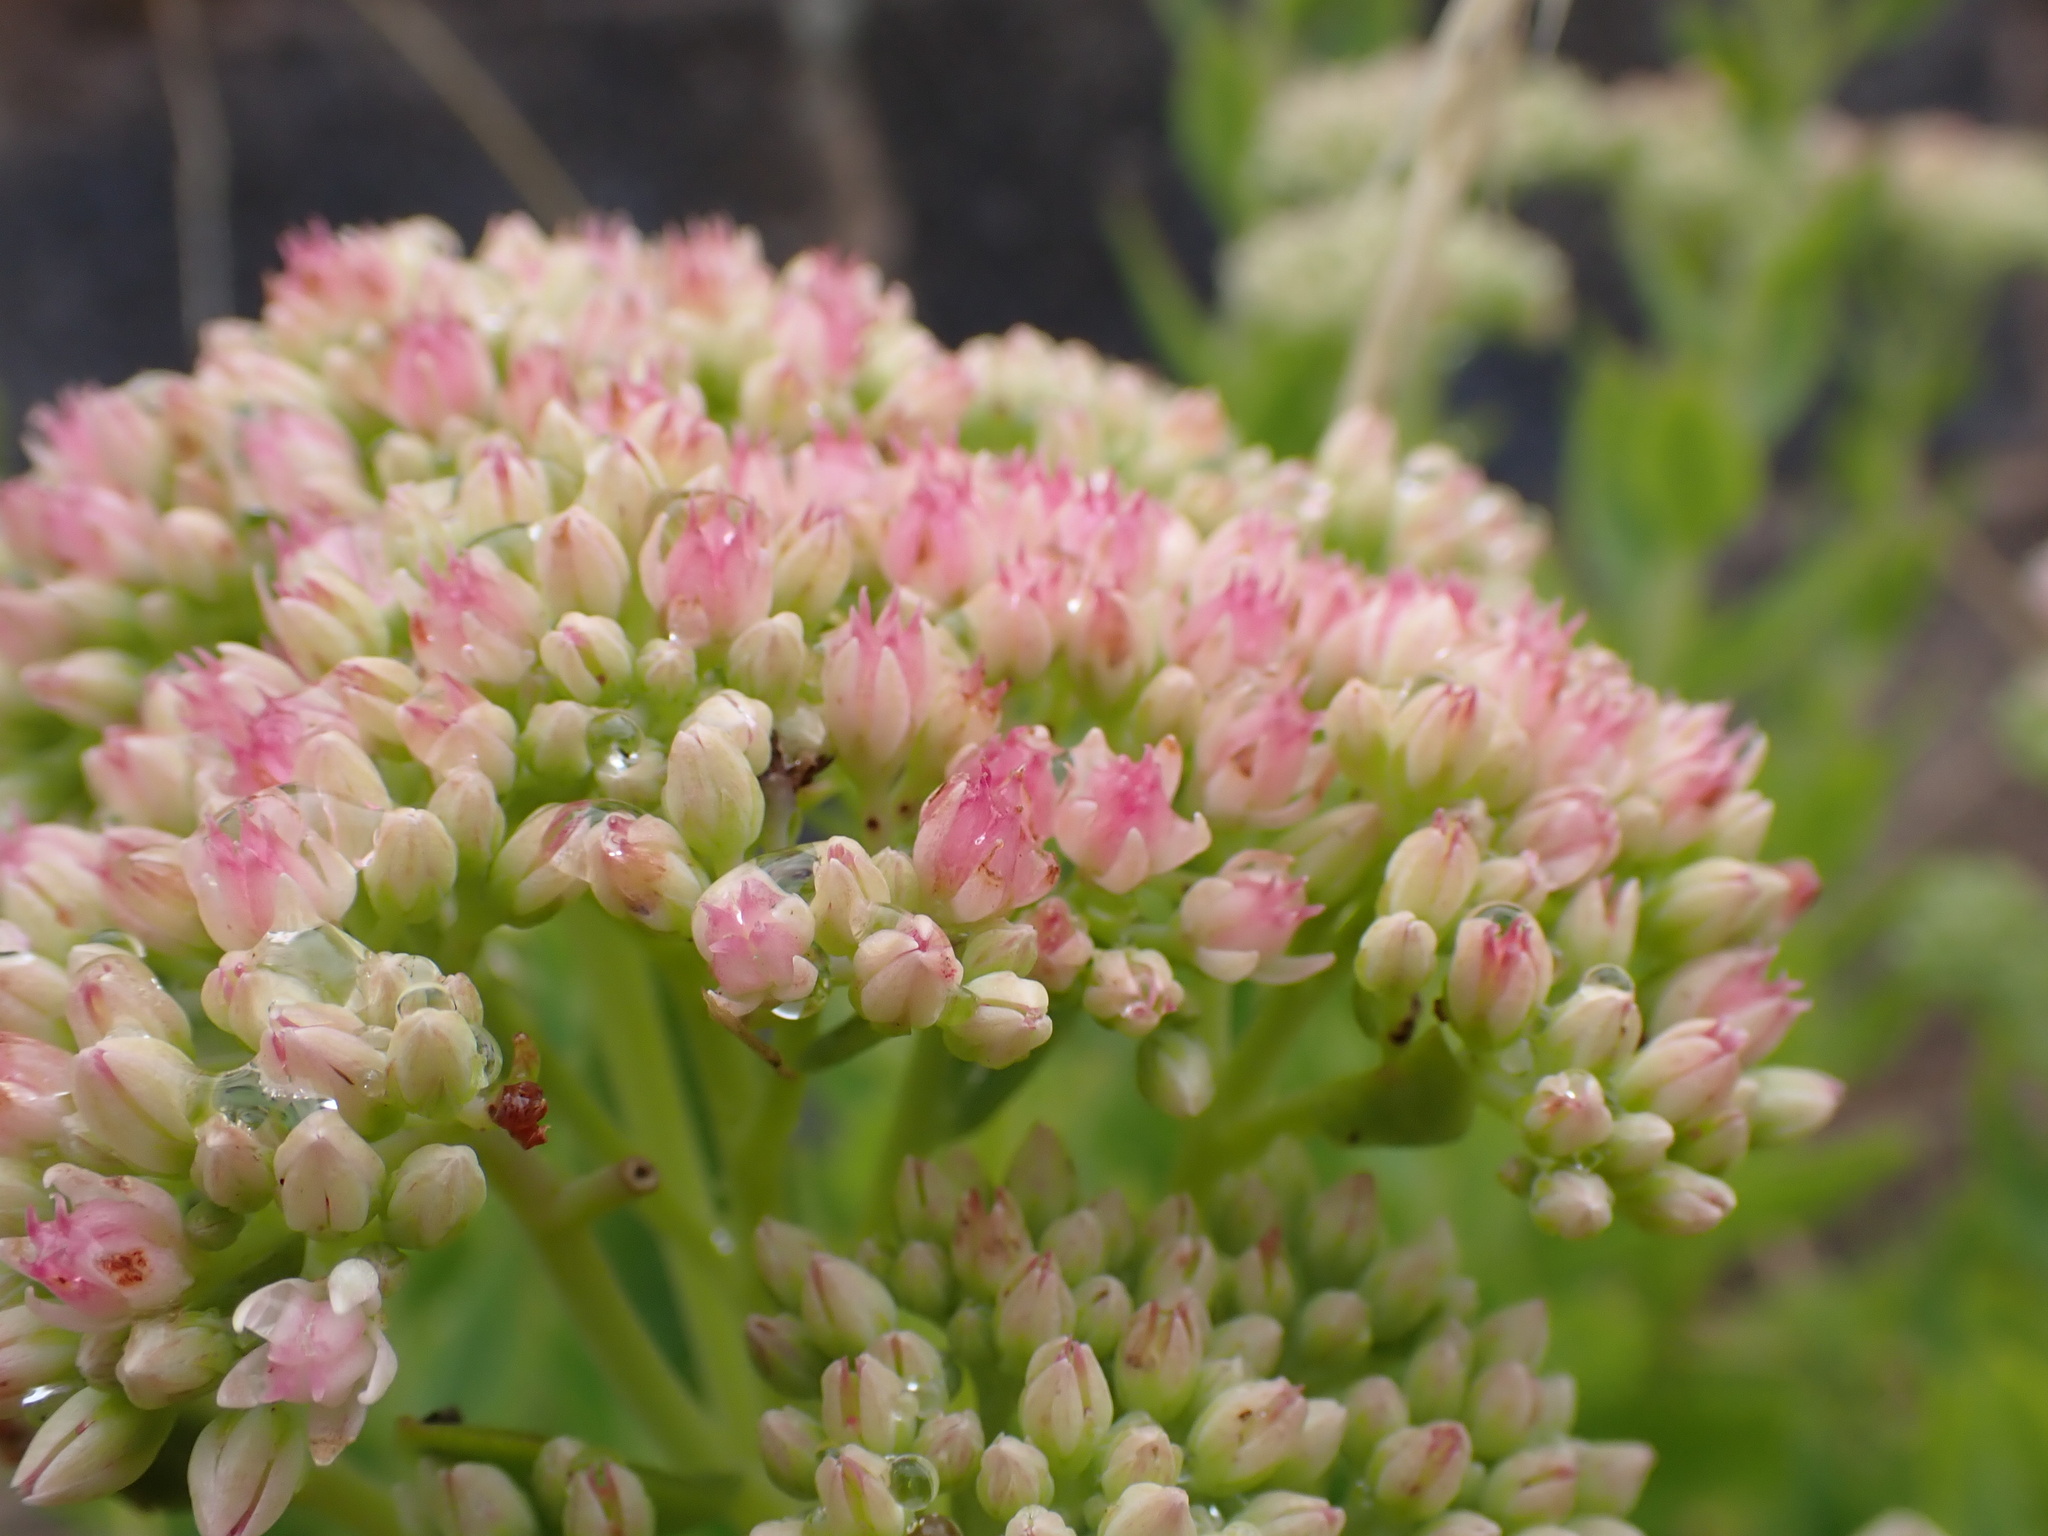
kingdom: Plantae
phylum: Tracheophyta
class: Magnoliopsida
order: Saxifragales
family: Crassulaceae
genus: Hylotelephium
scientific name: Hylotelephium
